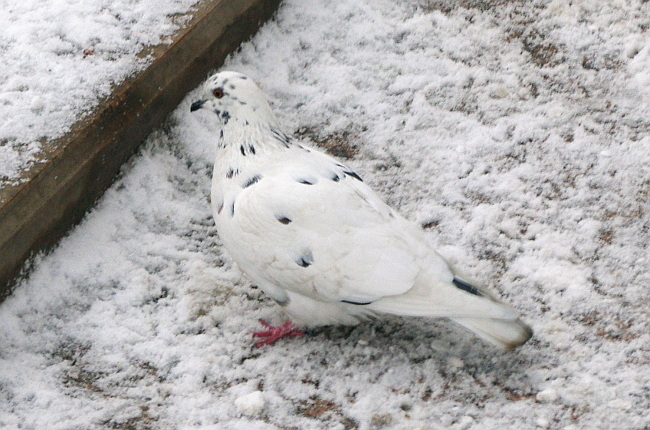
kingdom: Animalia
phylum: Chordata
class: Aves
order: Columbiformes
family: Columbidae
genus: Columba
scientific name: Columba livia
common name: Rock pigeon
